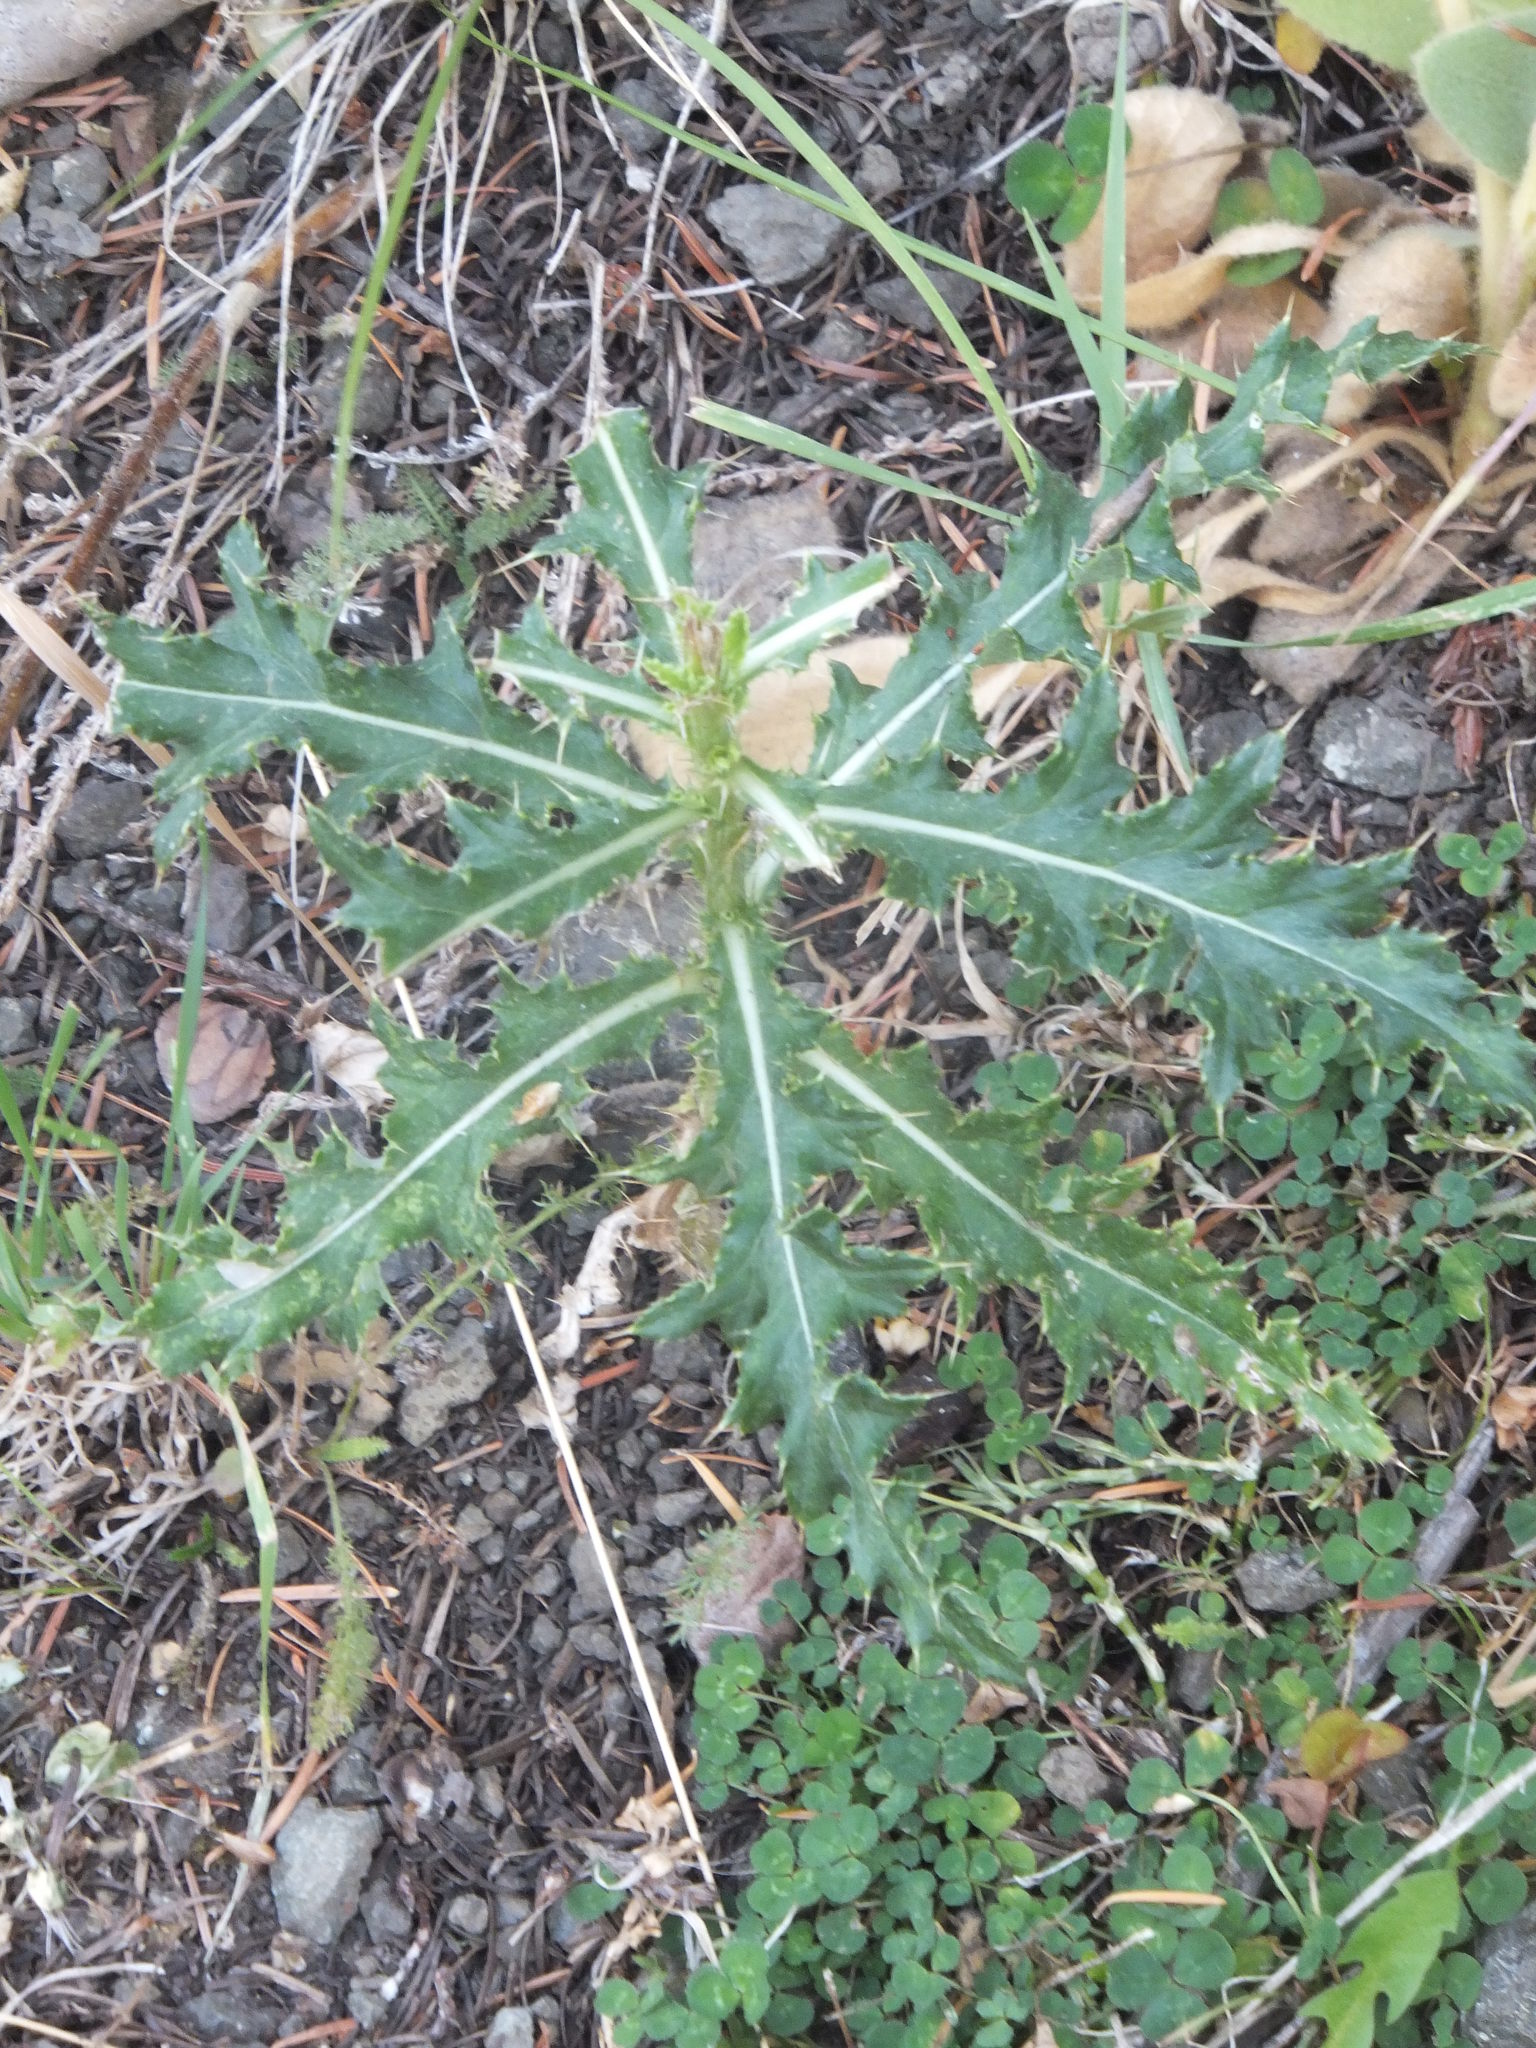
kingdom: Plantae
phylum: Tracheophyta
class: Magnoliopsida
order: Asterales
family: Asteraceae
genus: Cirsium
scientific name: Cirsium arvense
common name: Creeping thistle
